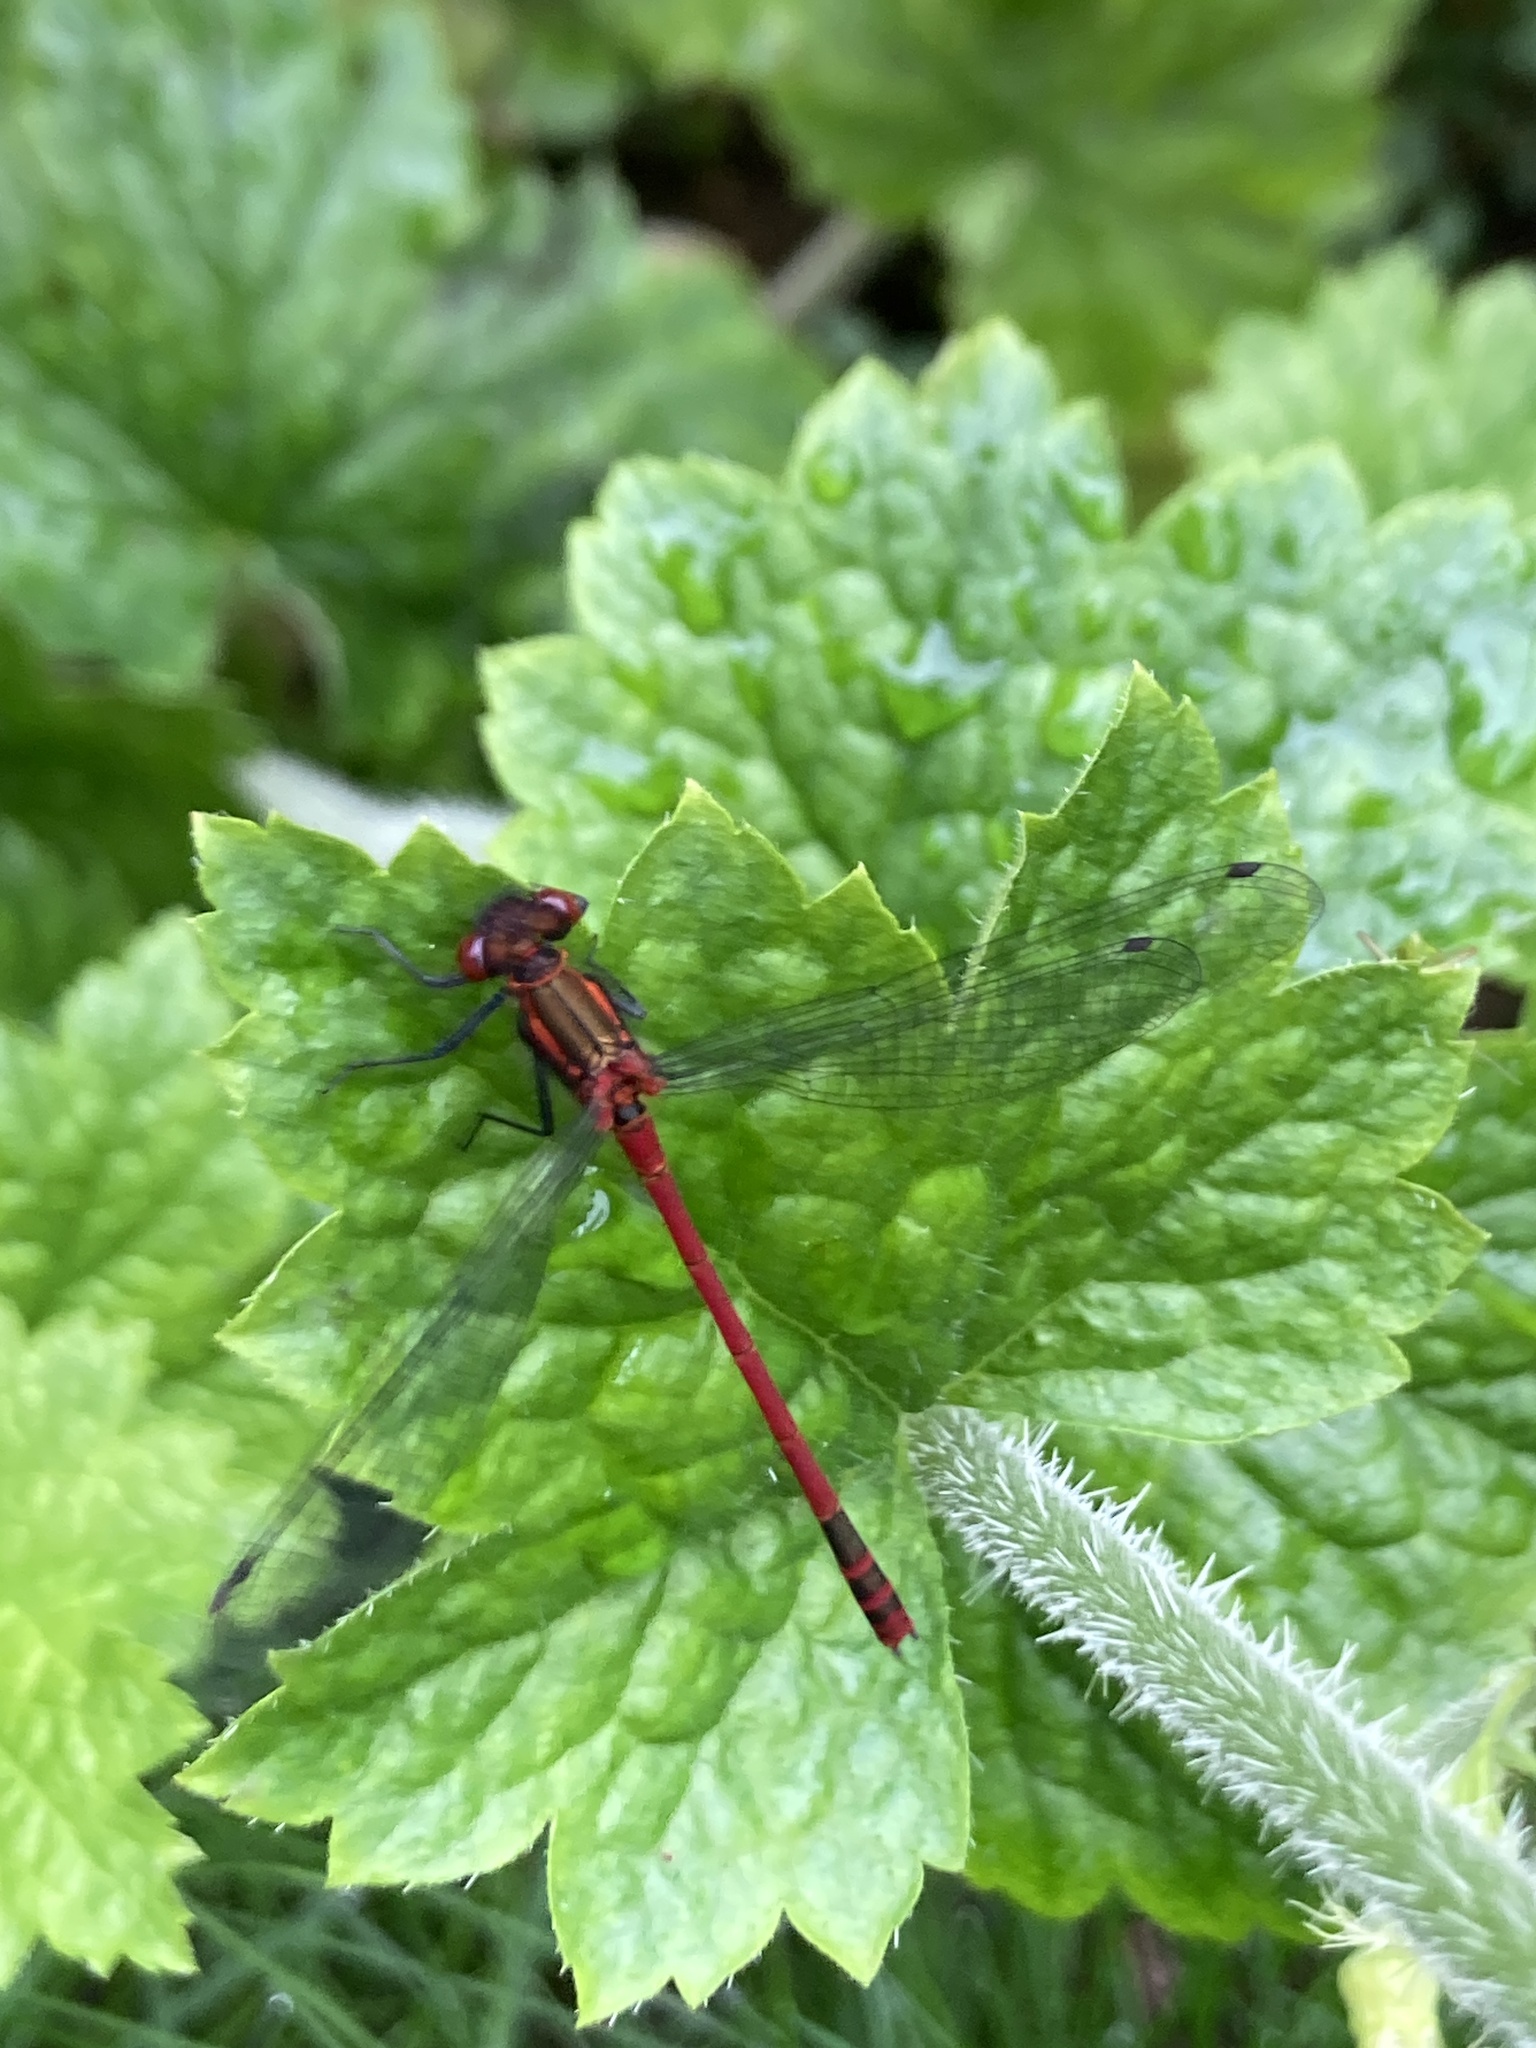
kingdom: Animalia
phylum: Arthropoda
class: Insecta
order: Odonata
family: Coenagrionidae
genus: Pyrrhosoma
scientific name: Pyrrhosoma nymphula
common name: Large red damsel
